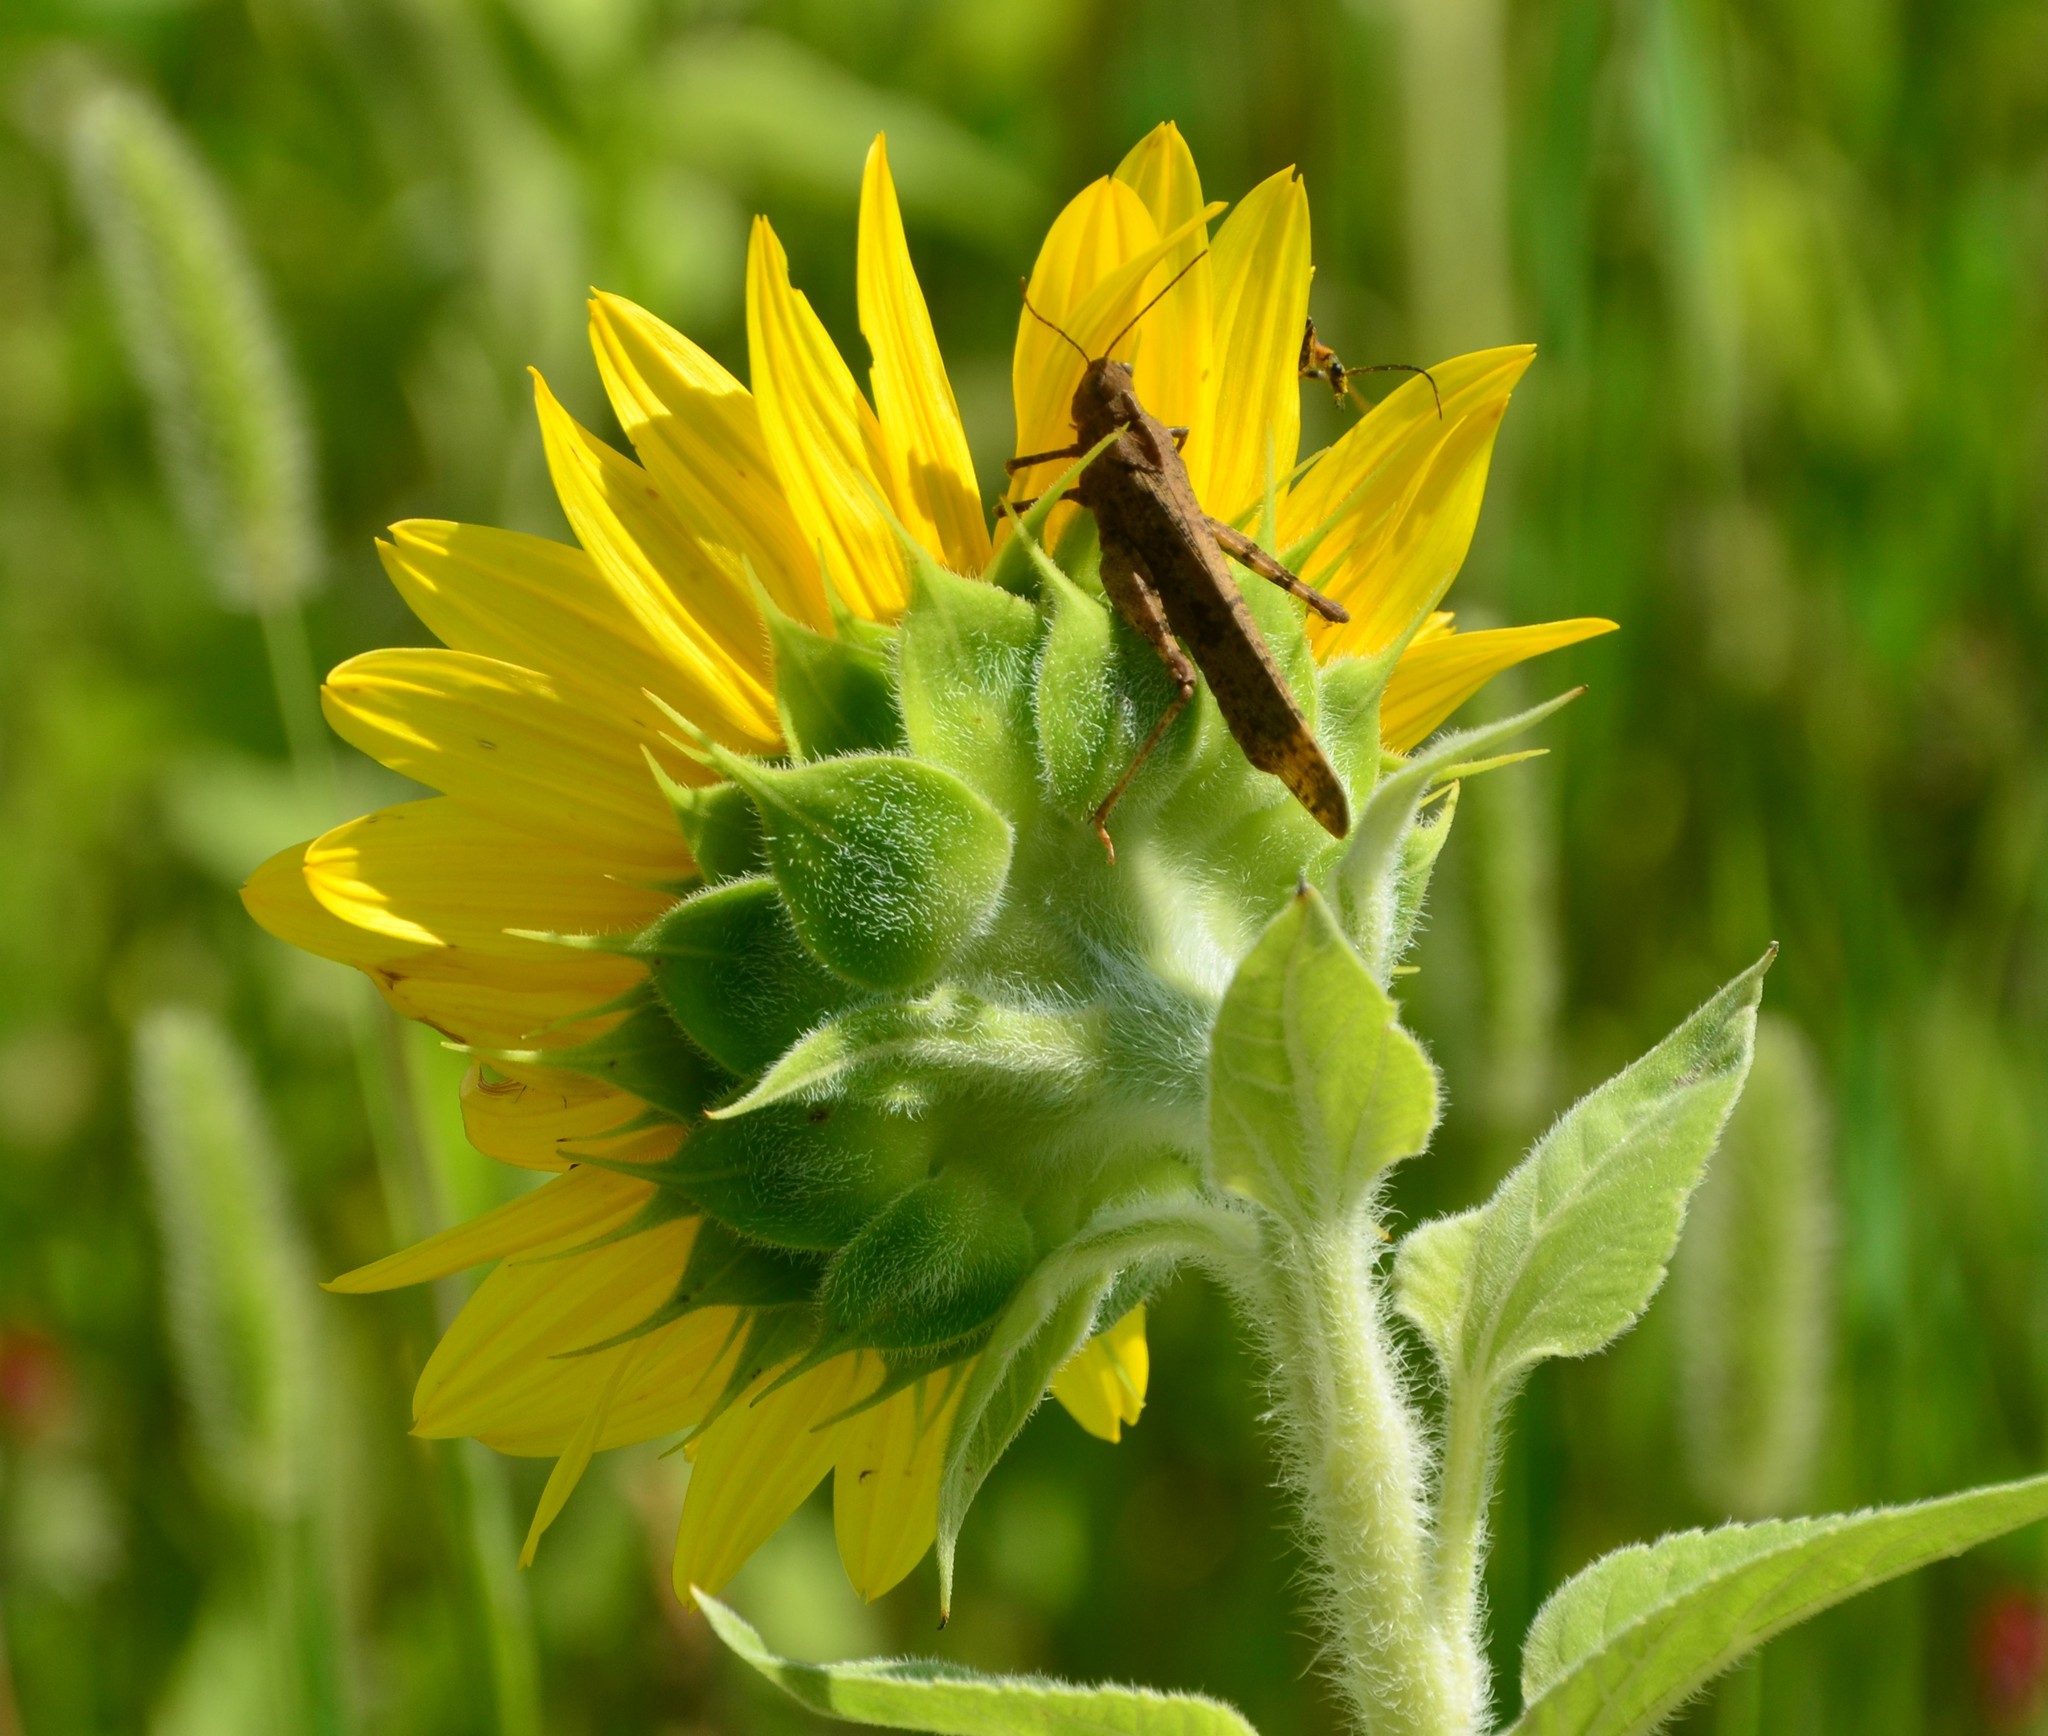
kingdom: Animalia
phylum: Arthropoda
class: Insecta
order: Orthoptera
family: Acrididae
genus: Dissosteira
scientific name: Dissosteira carolina
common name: Carolina grasshopper
